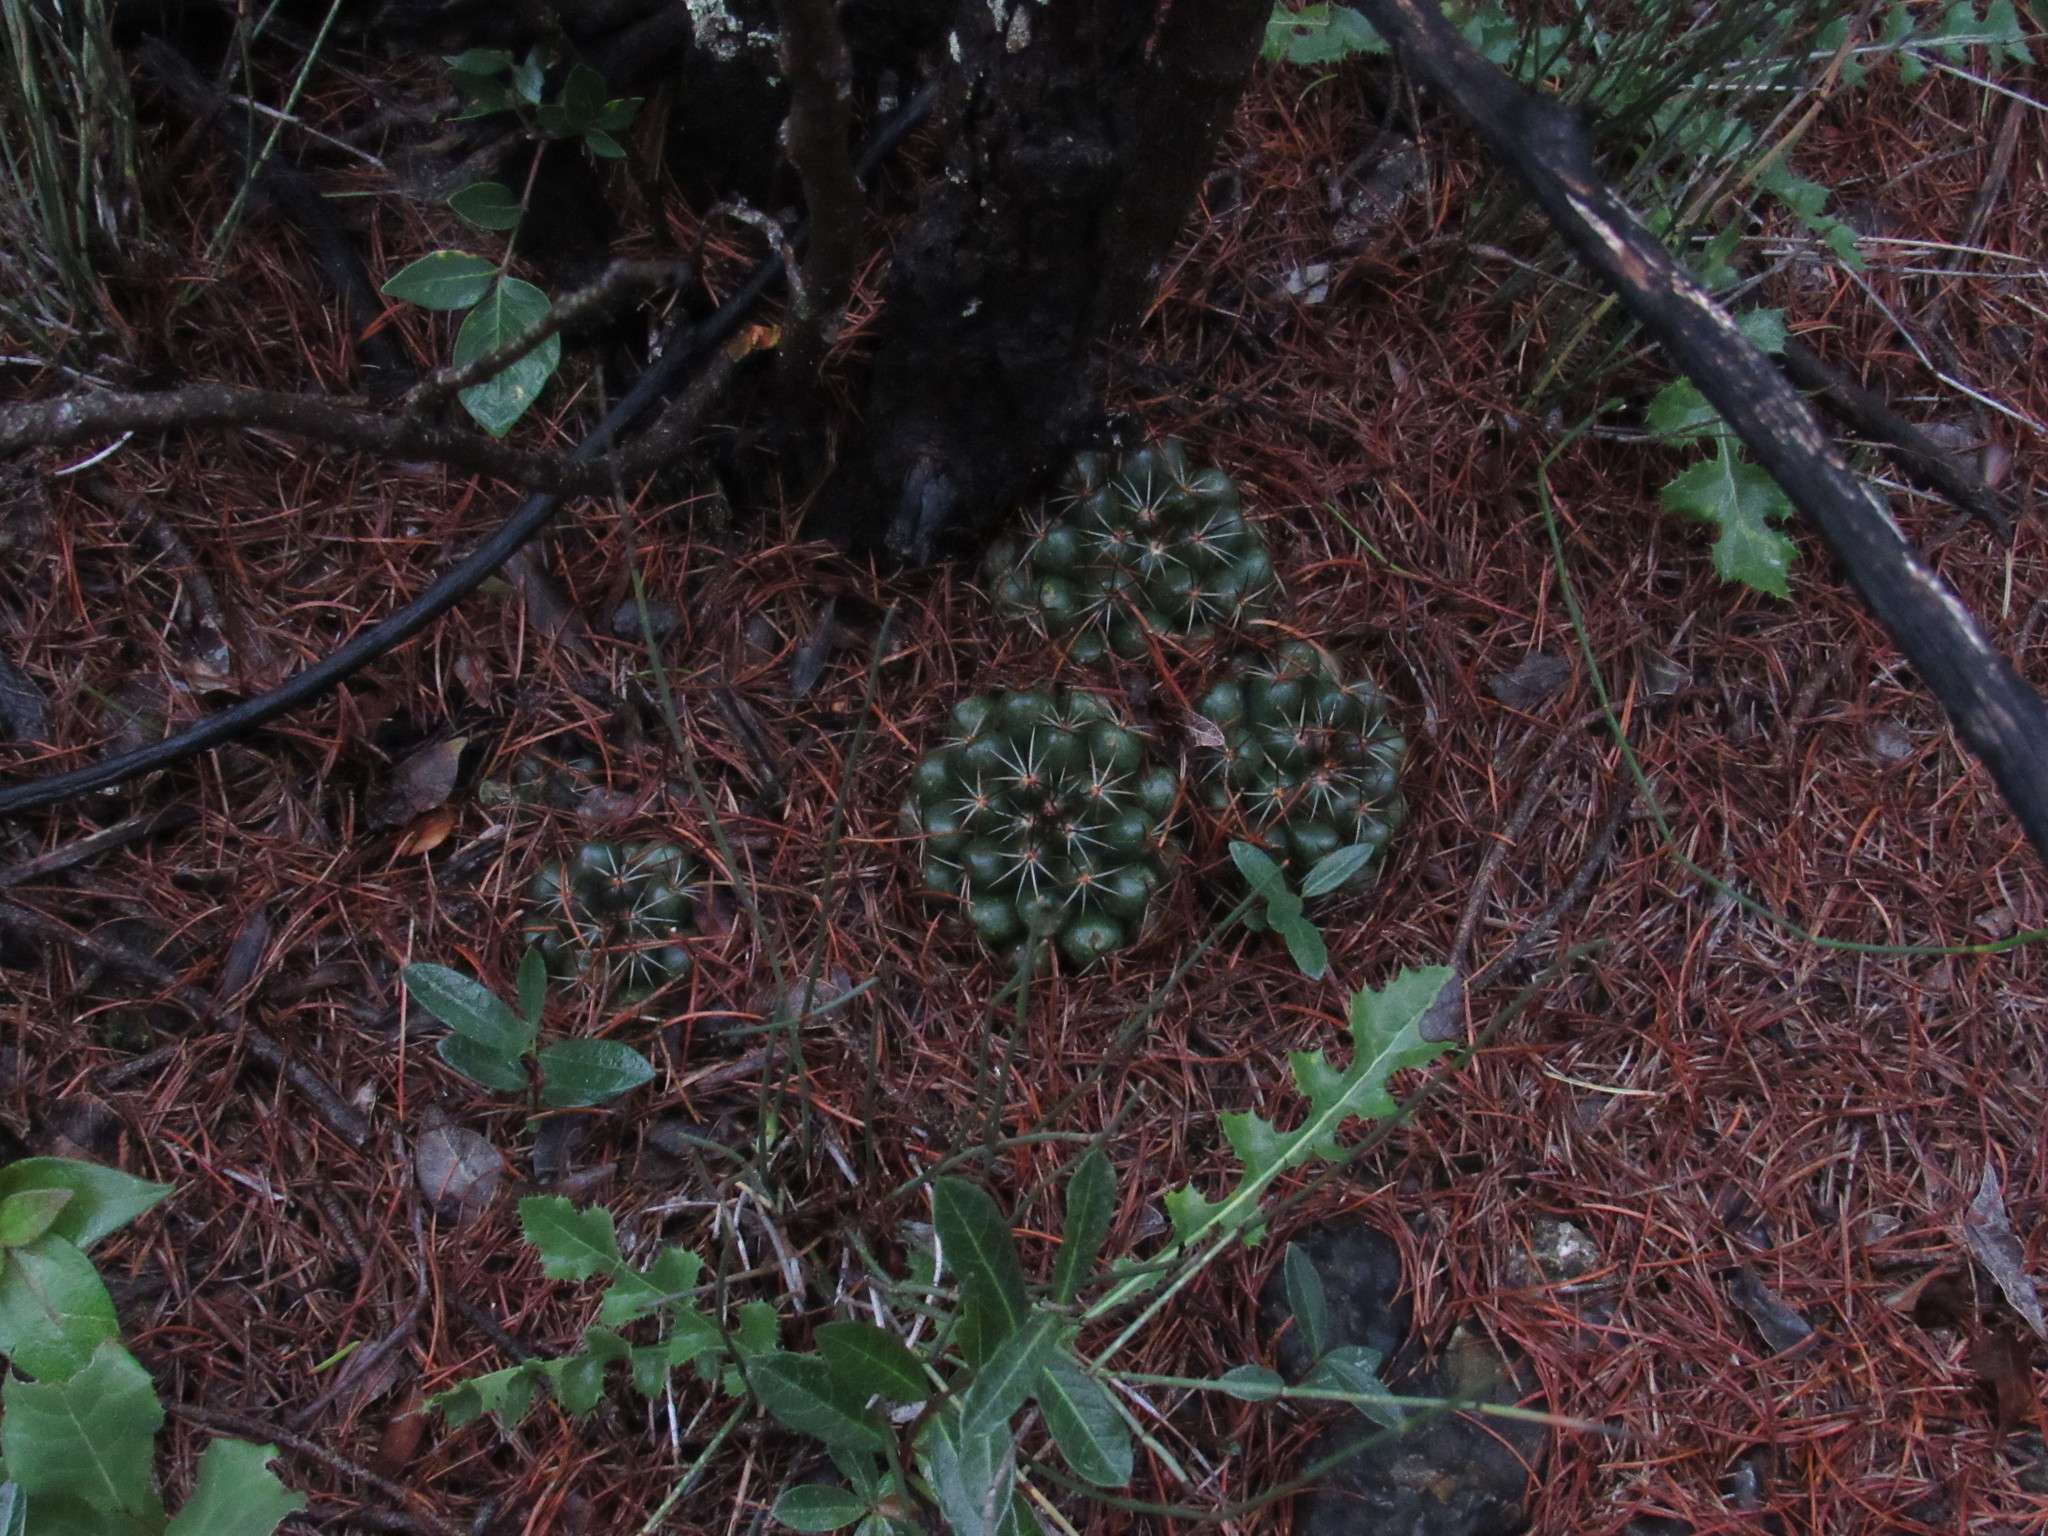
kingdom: Plantae
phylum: Tracheophyta
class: Magnoliopsida
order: Caryophyllales
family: Cactaceae
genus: Mammillaria
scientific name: Mammillaria melaleuca
